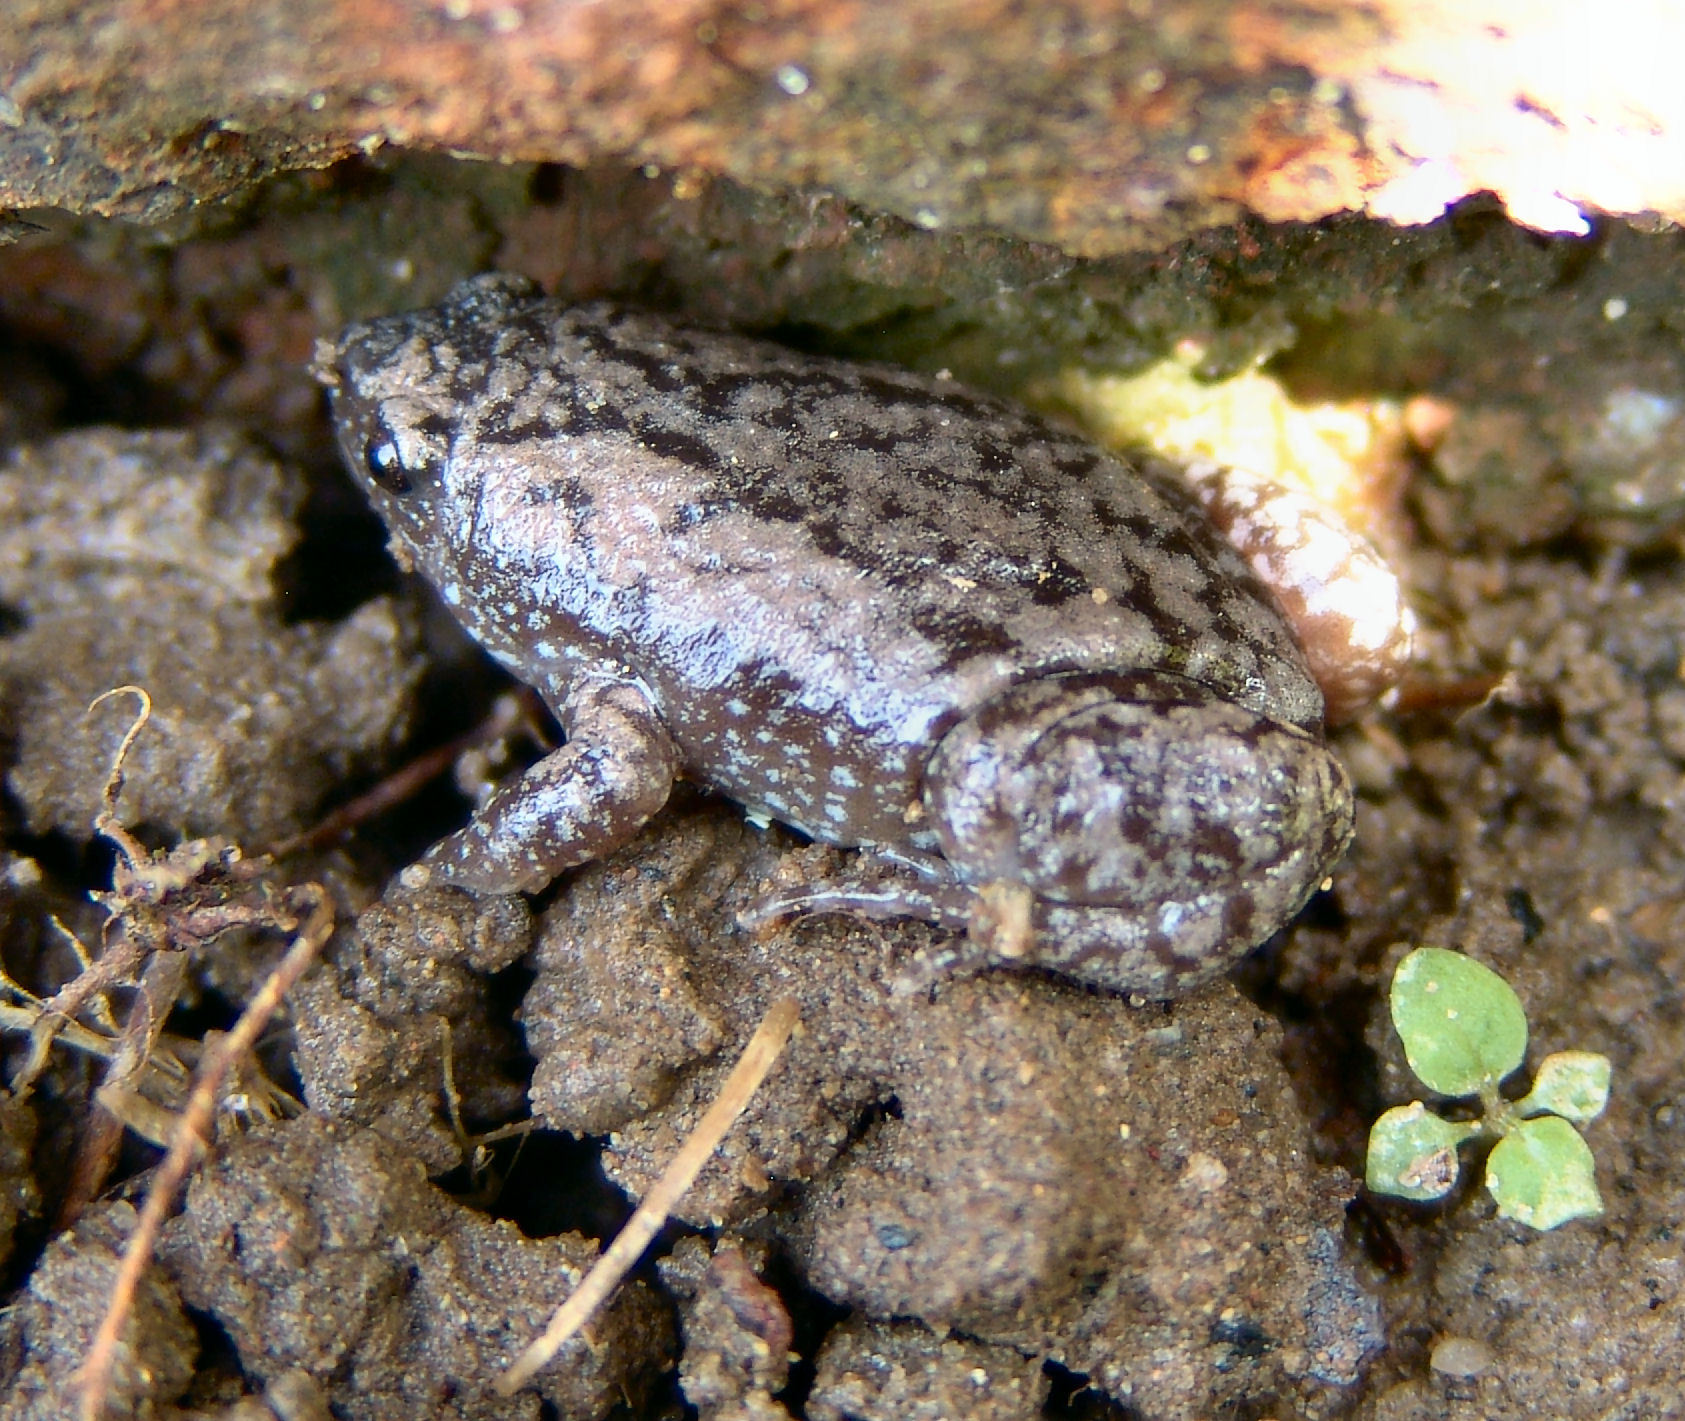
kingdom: Animalia
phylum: Chordata
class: Amphibia
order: Anura
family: Microhylidae
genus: Gastrophryne
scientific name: Gastrophryne carolinensis
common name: Eastern narrowmouth toad
